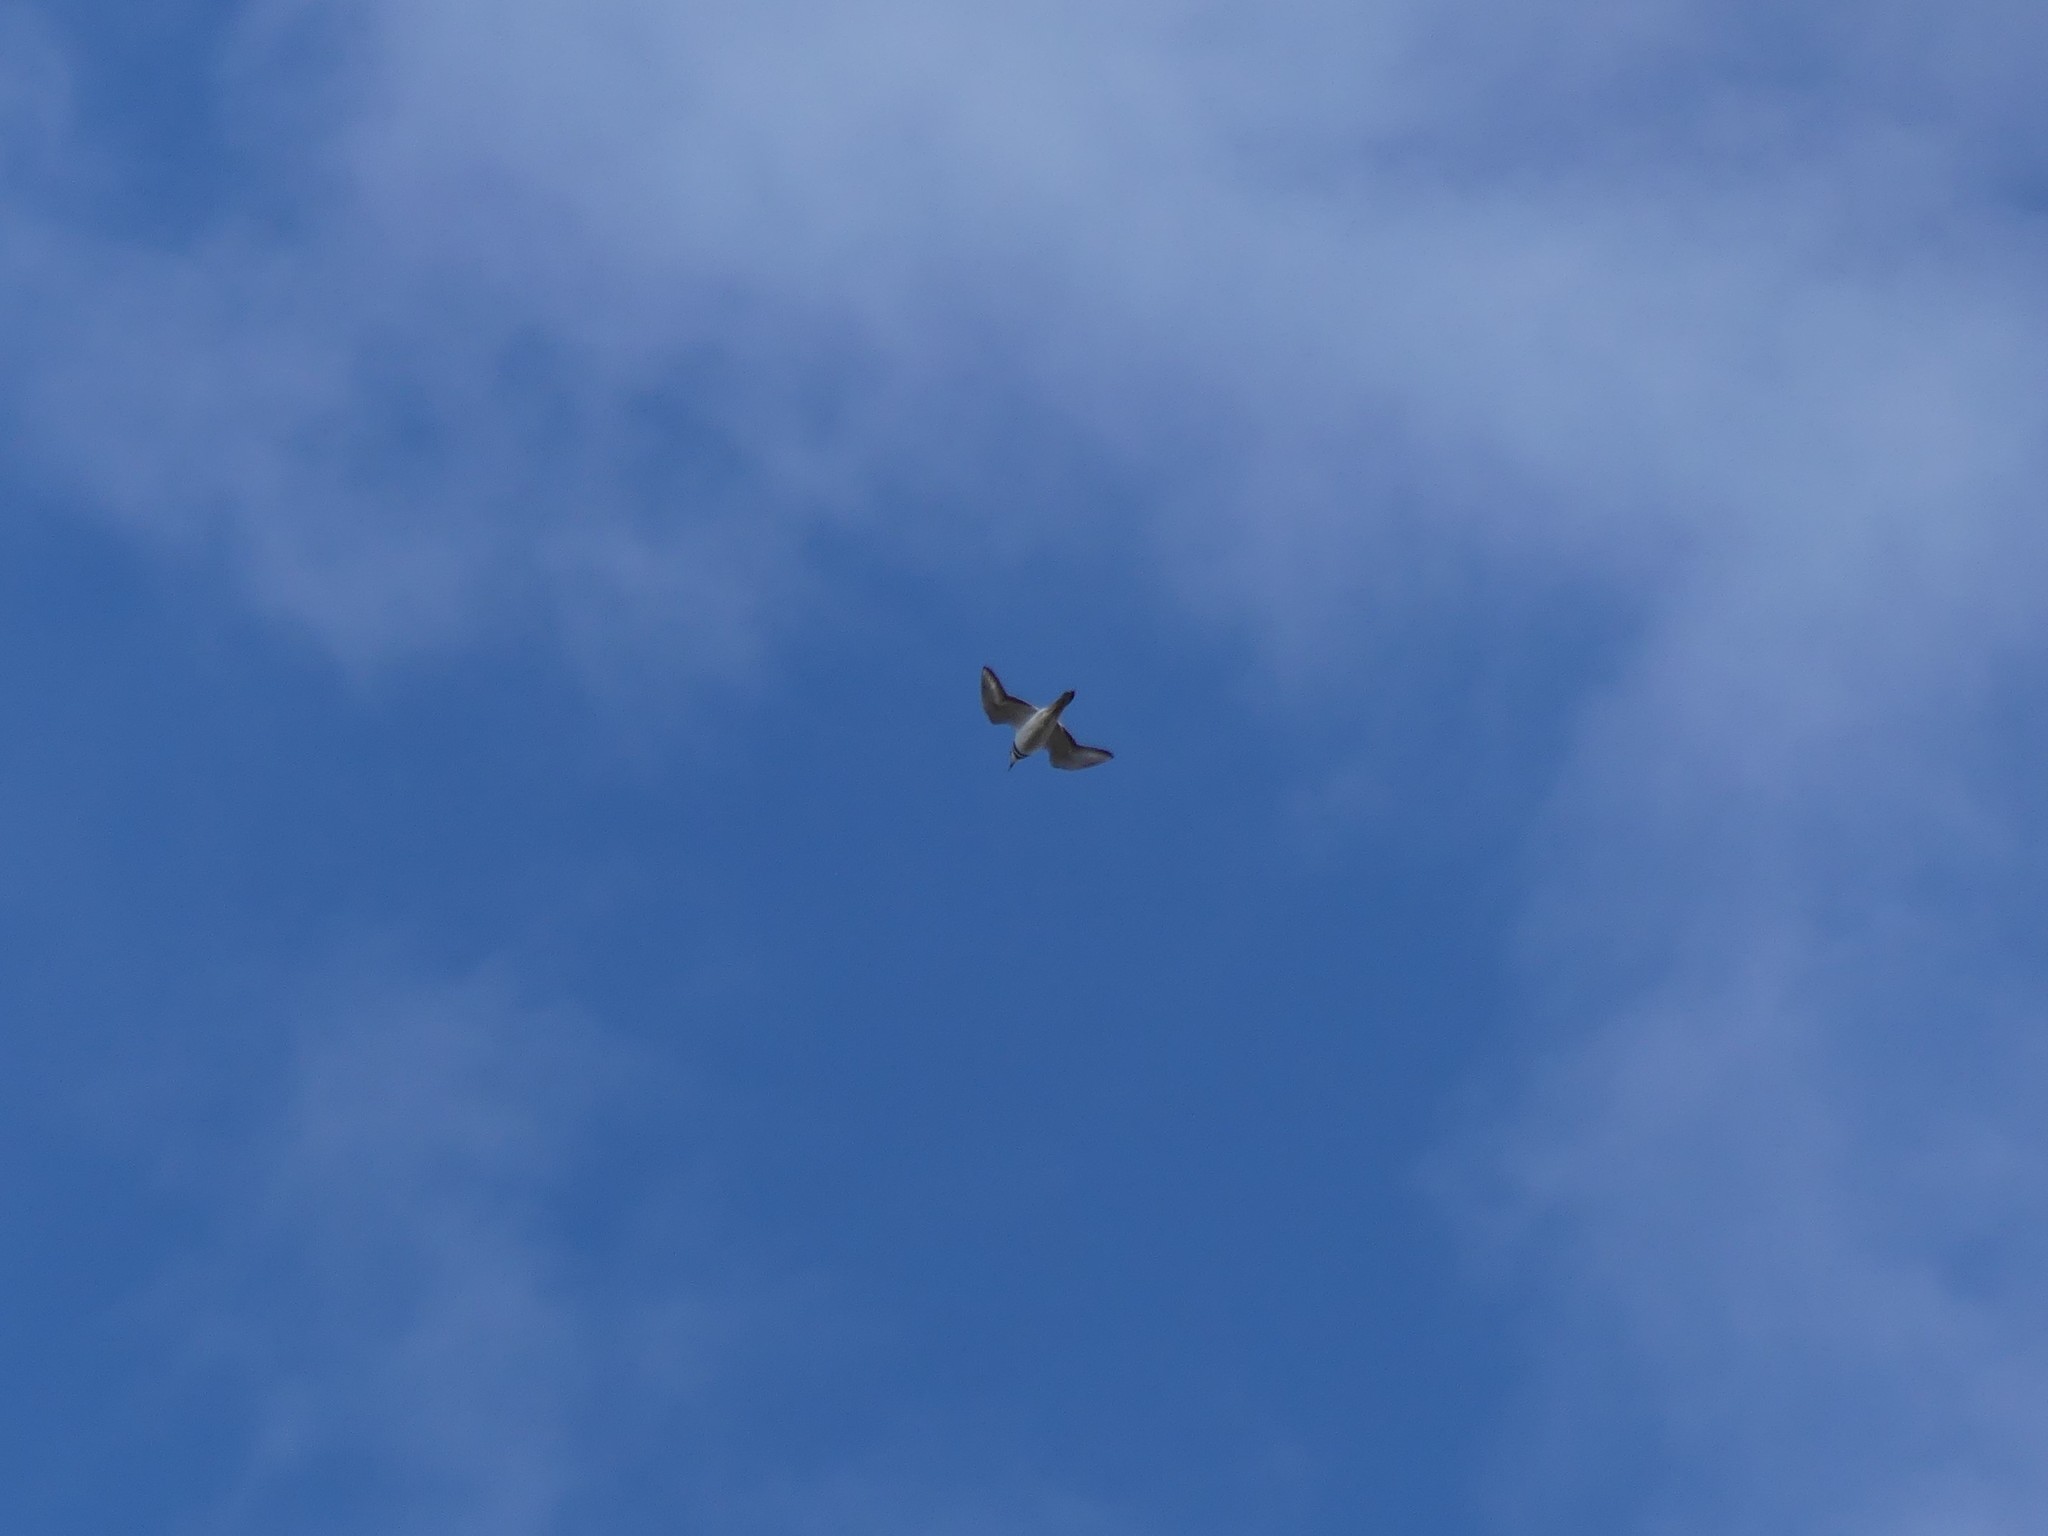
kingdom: Animalia
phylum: Chordata
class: Aves
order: Charadriiformes
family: Charadriidae
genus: Charadrius
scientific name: Charadrius vociferus
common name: Killdeer
